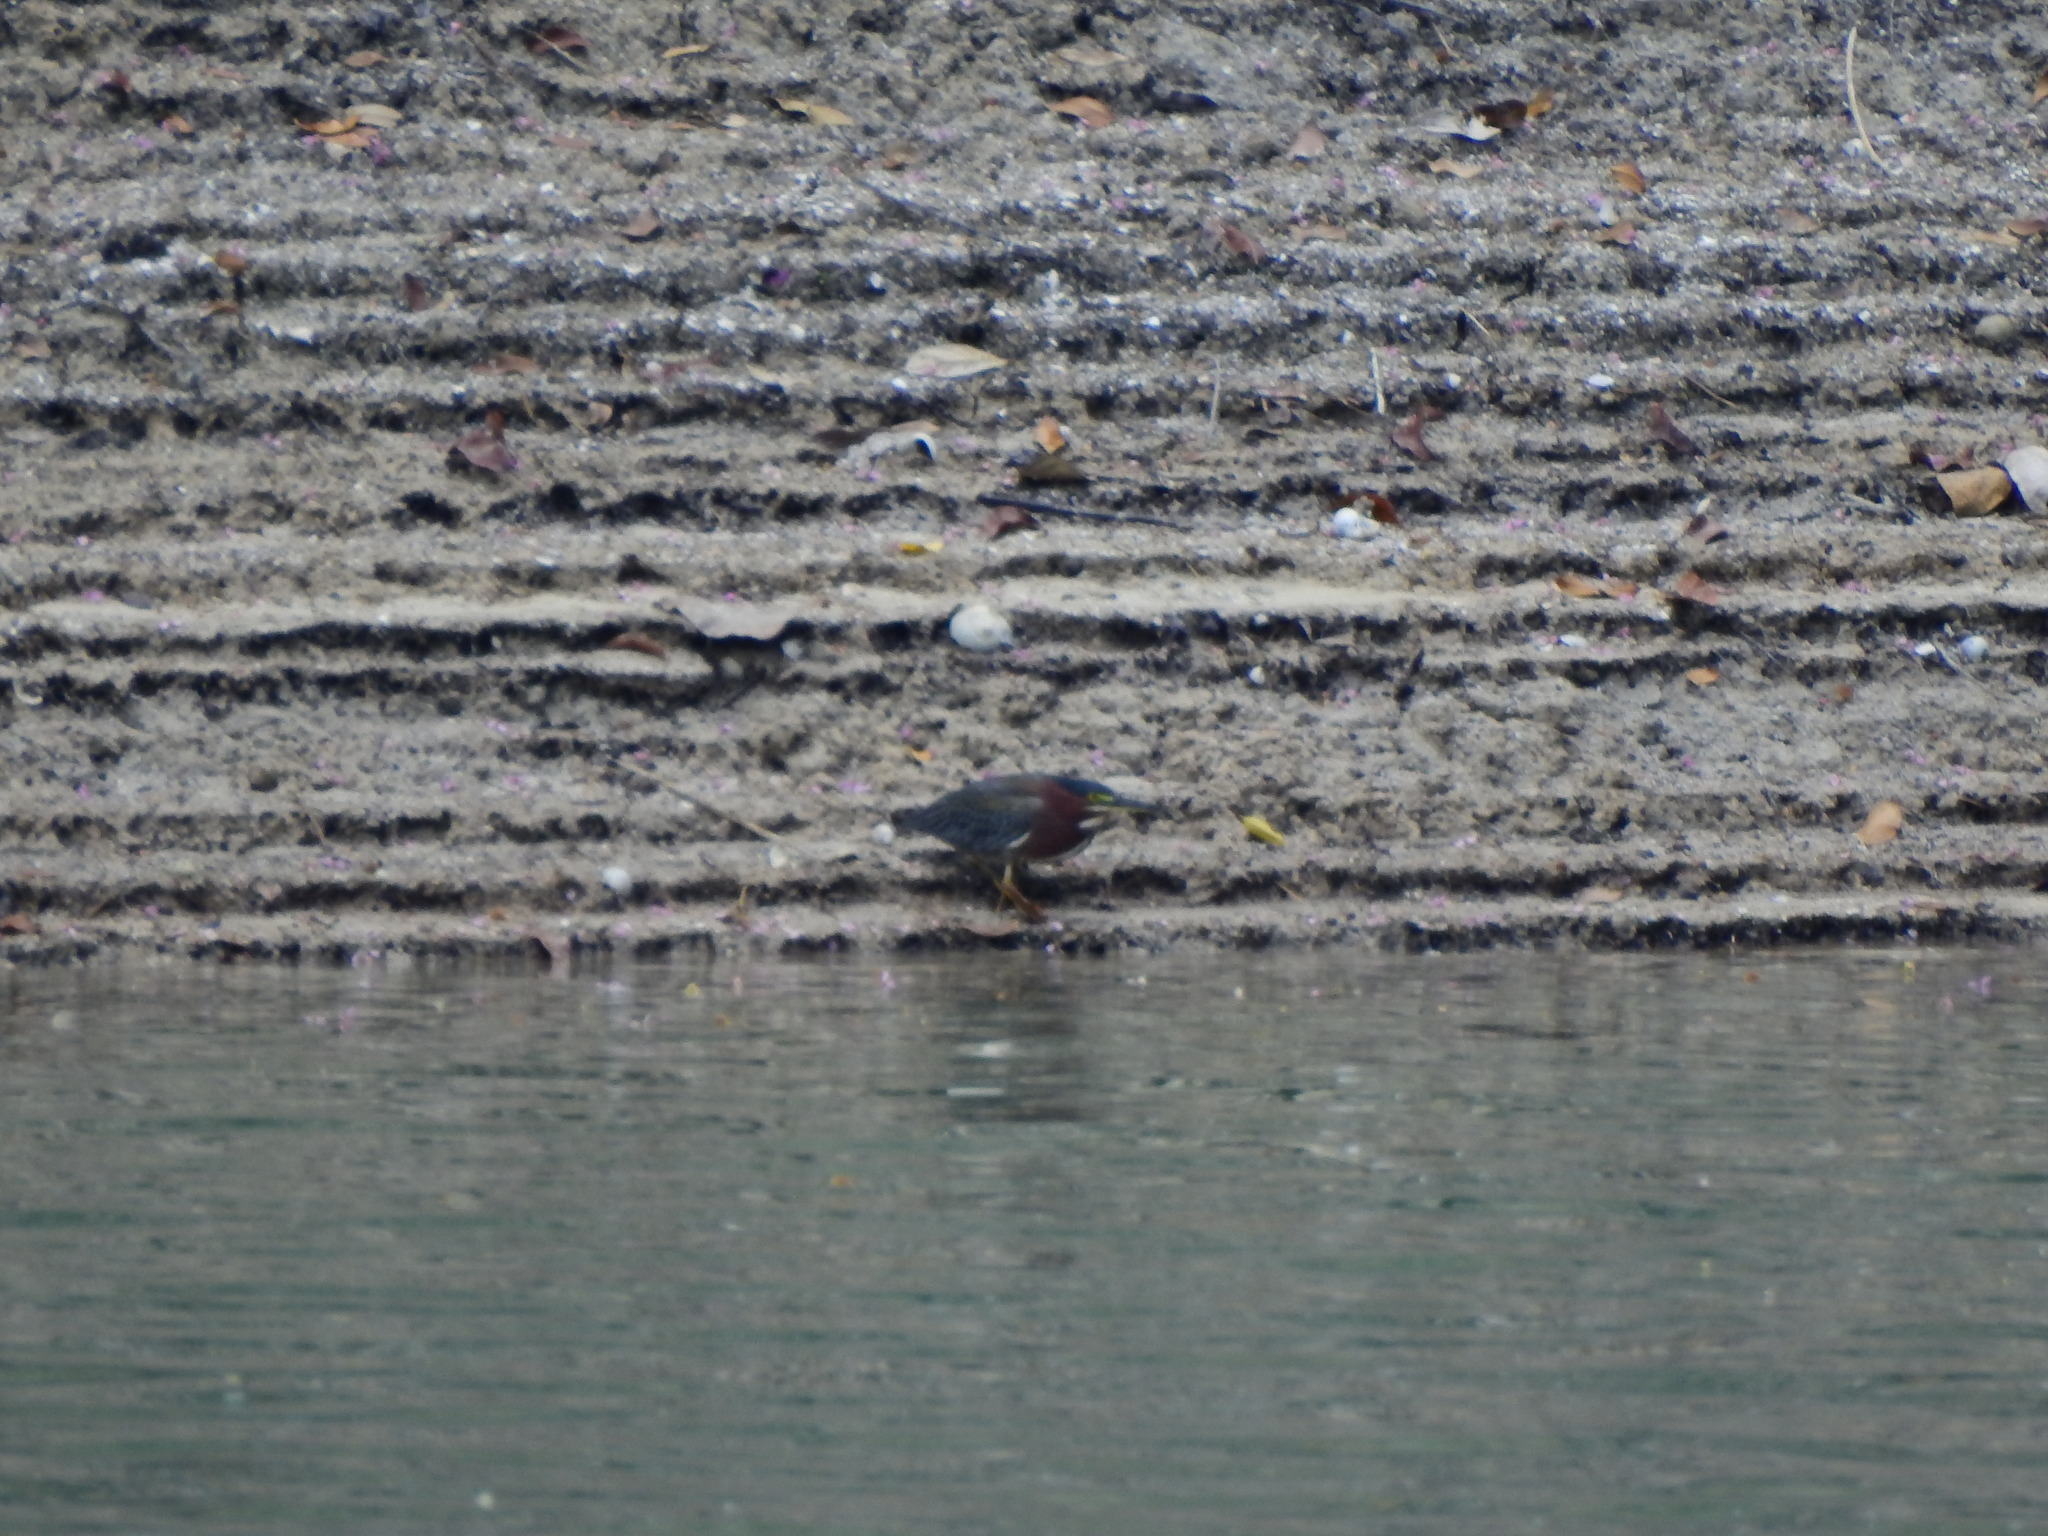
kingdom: Animalia
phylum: Chordata
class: Aves
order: Pelecaniformes
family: Ardeidae
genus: Butorides
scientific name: Butorides virescens
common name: Green heron
